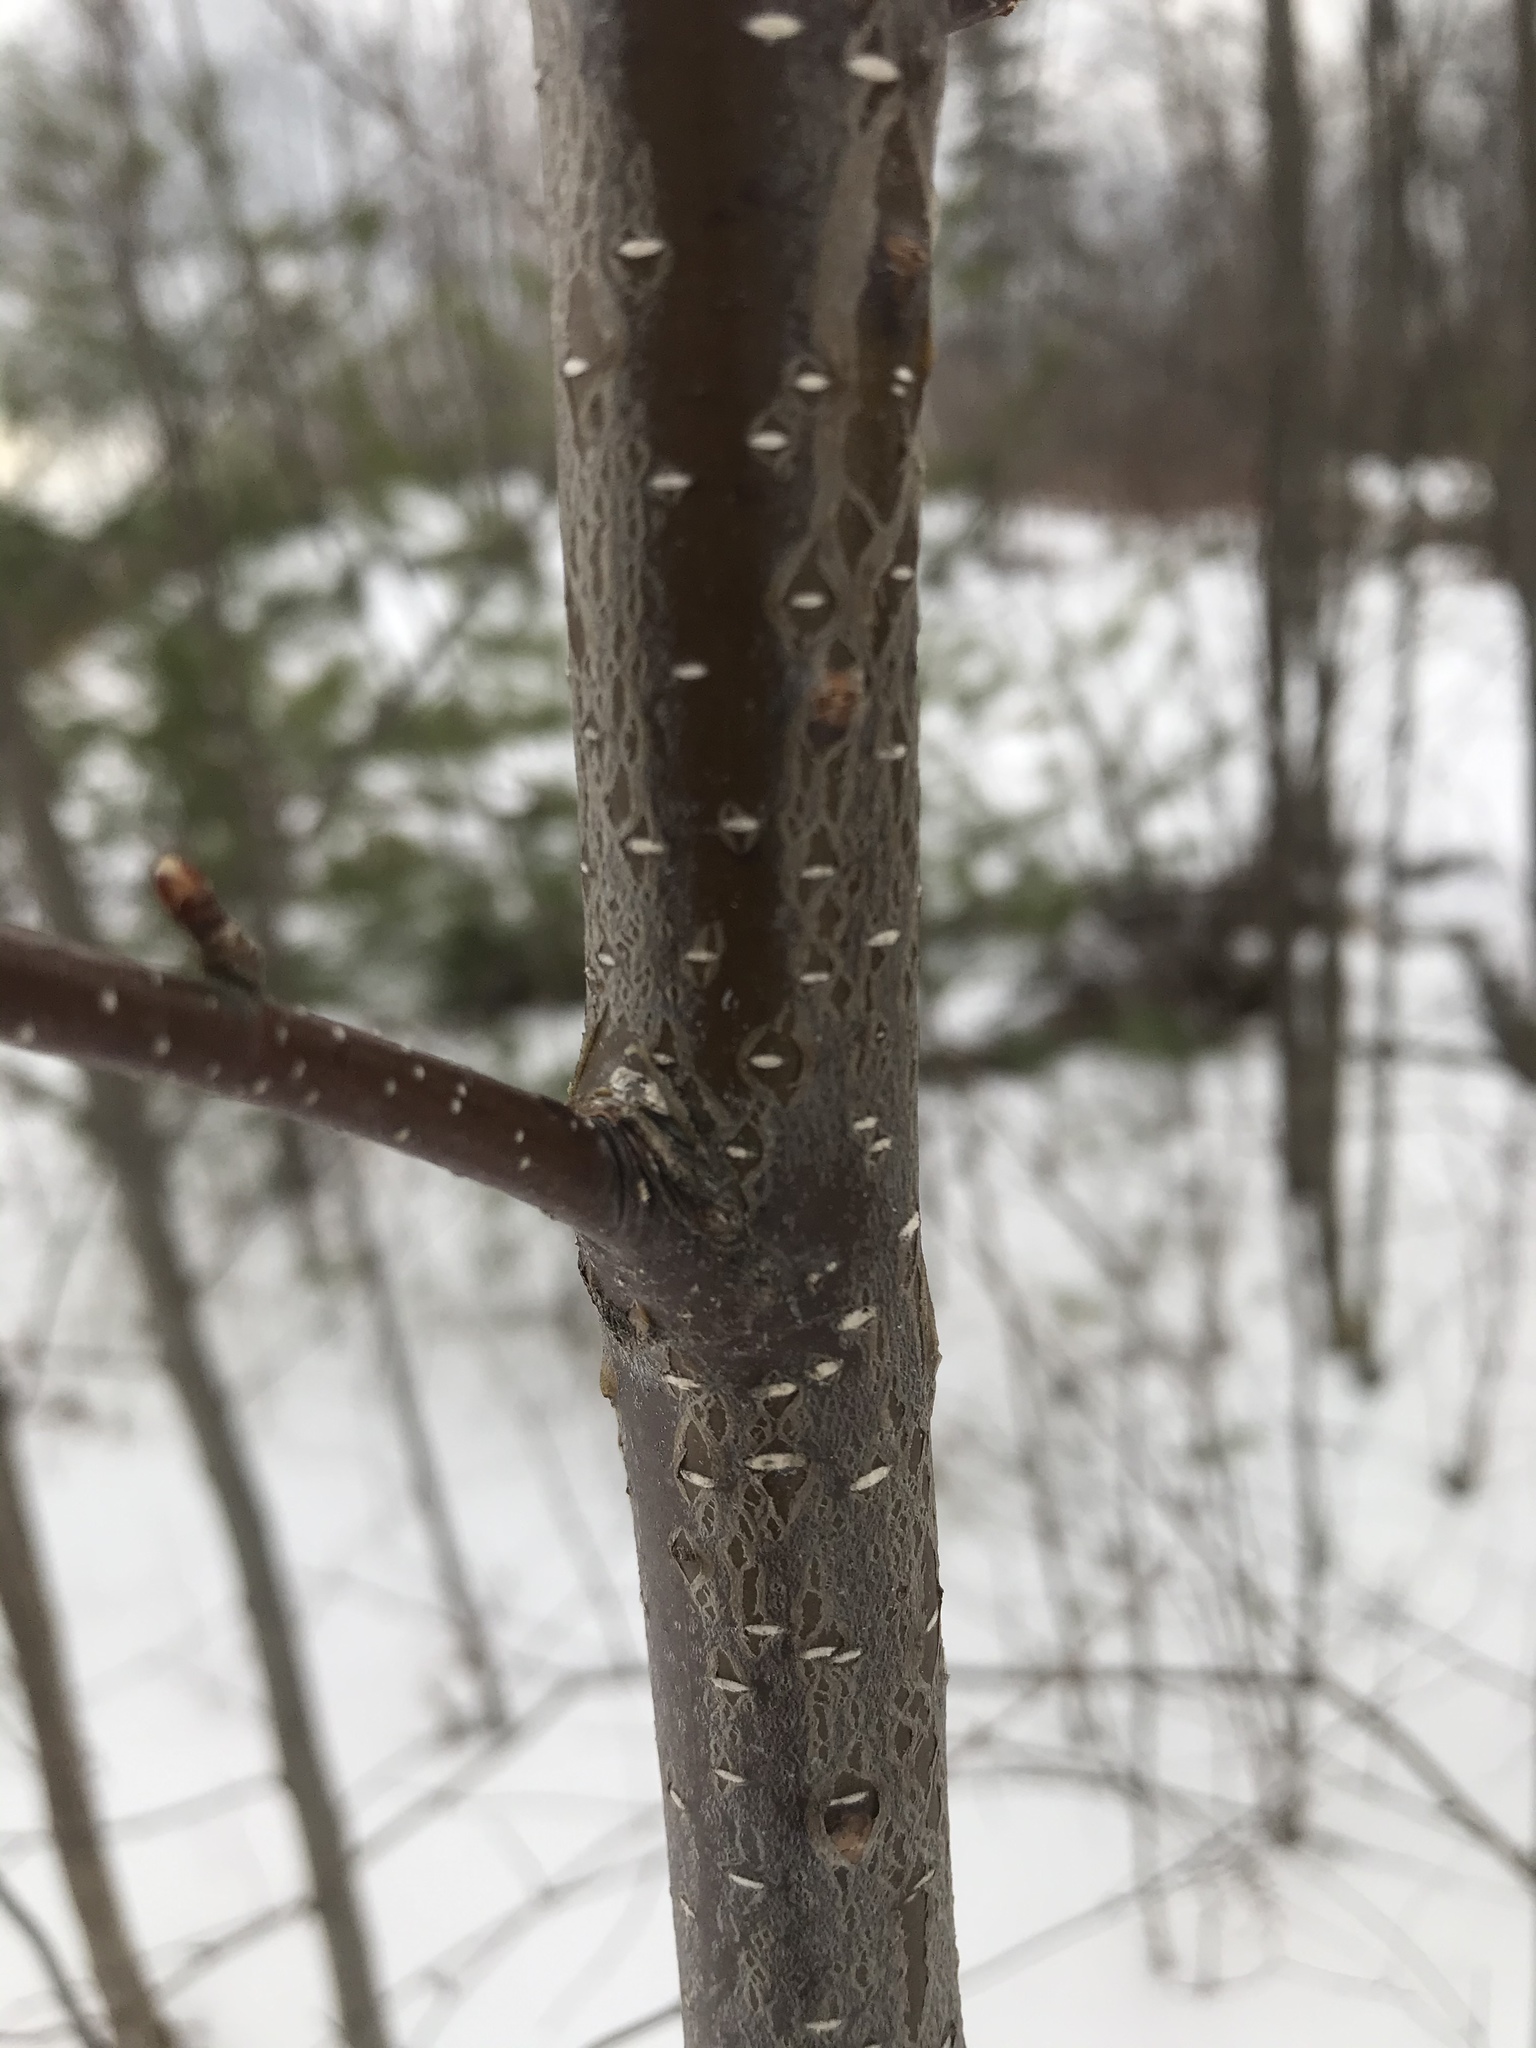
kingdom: Plantae
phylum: Tracheophyta
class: Magnoliopsida
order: Rosales
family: Rosaceae
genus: Prunus
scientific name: Prunus pensylvanica
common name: Pin cherry
